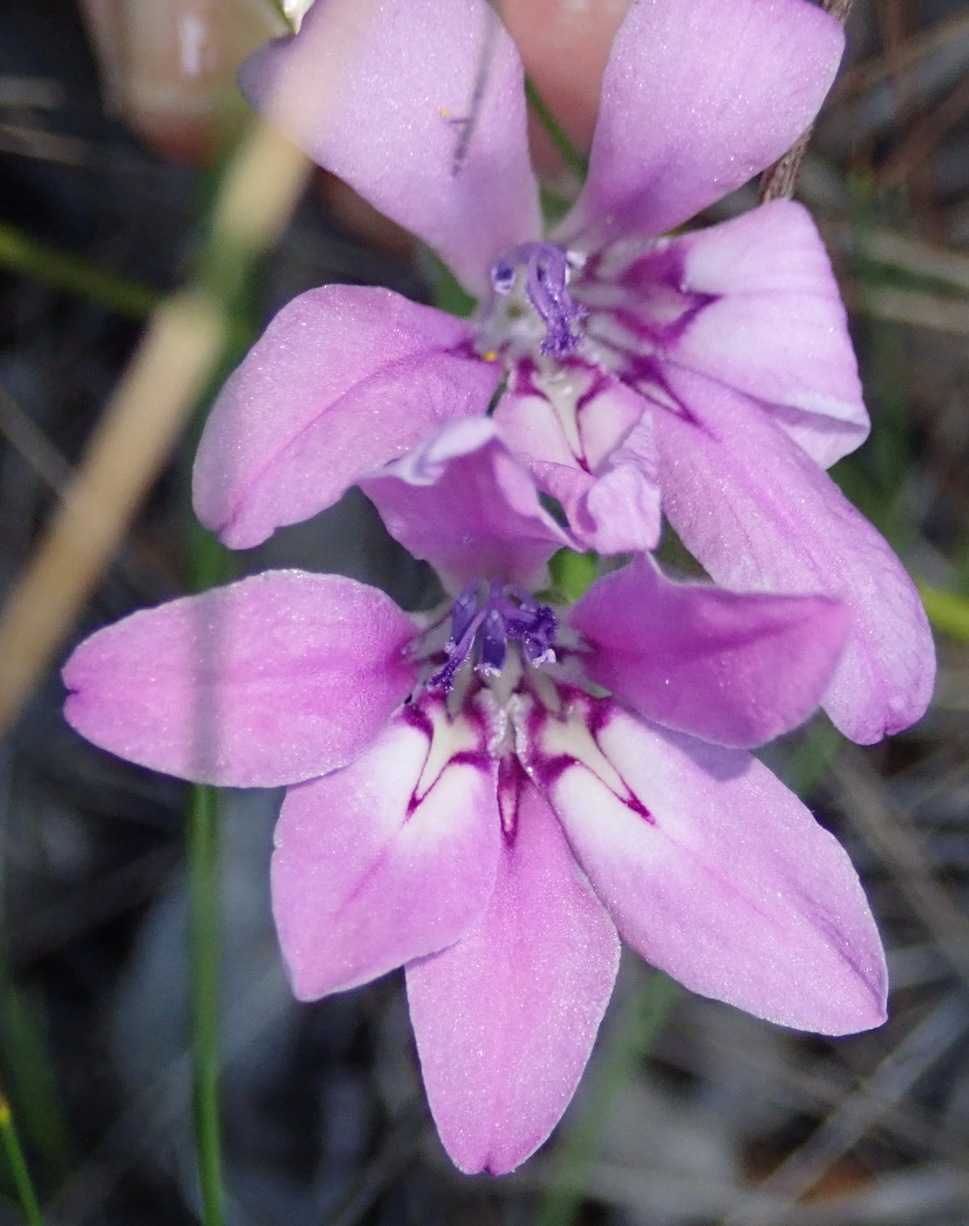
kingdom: Plantae
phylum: Tracheophyta
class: Liliopsida
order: Asparagales
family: Iridaceae
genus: Babiana
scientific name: Babiana ambigua
